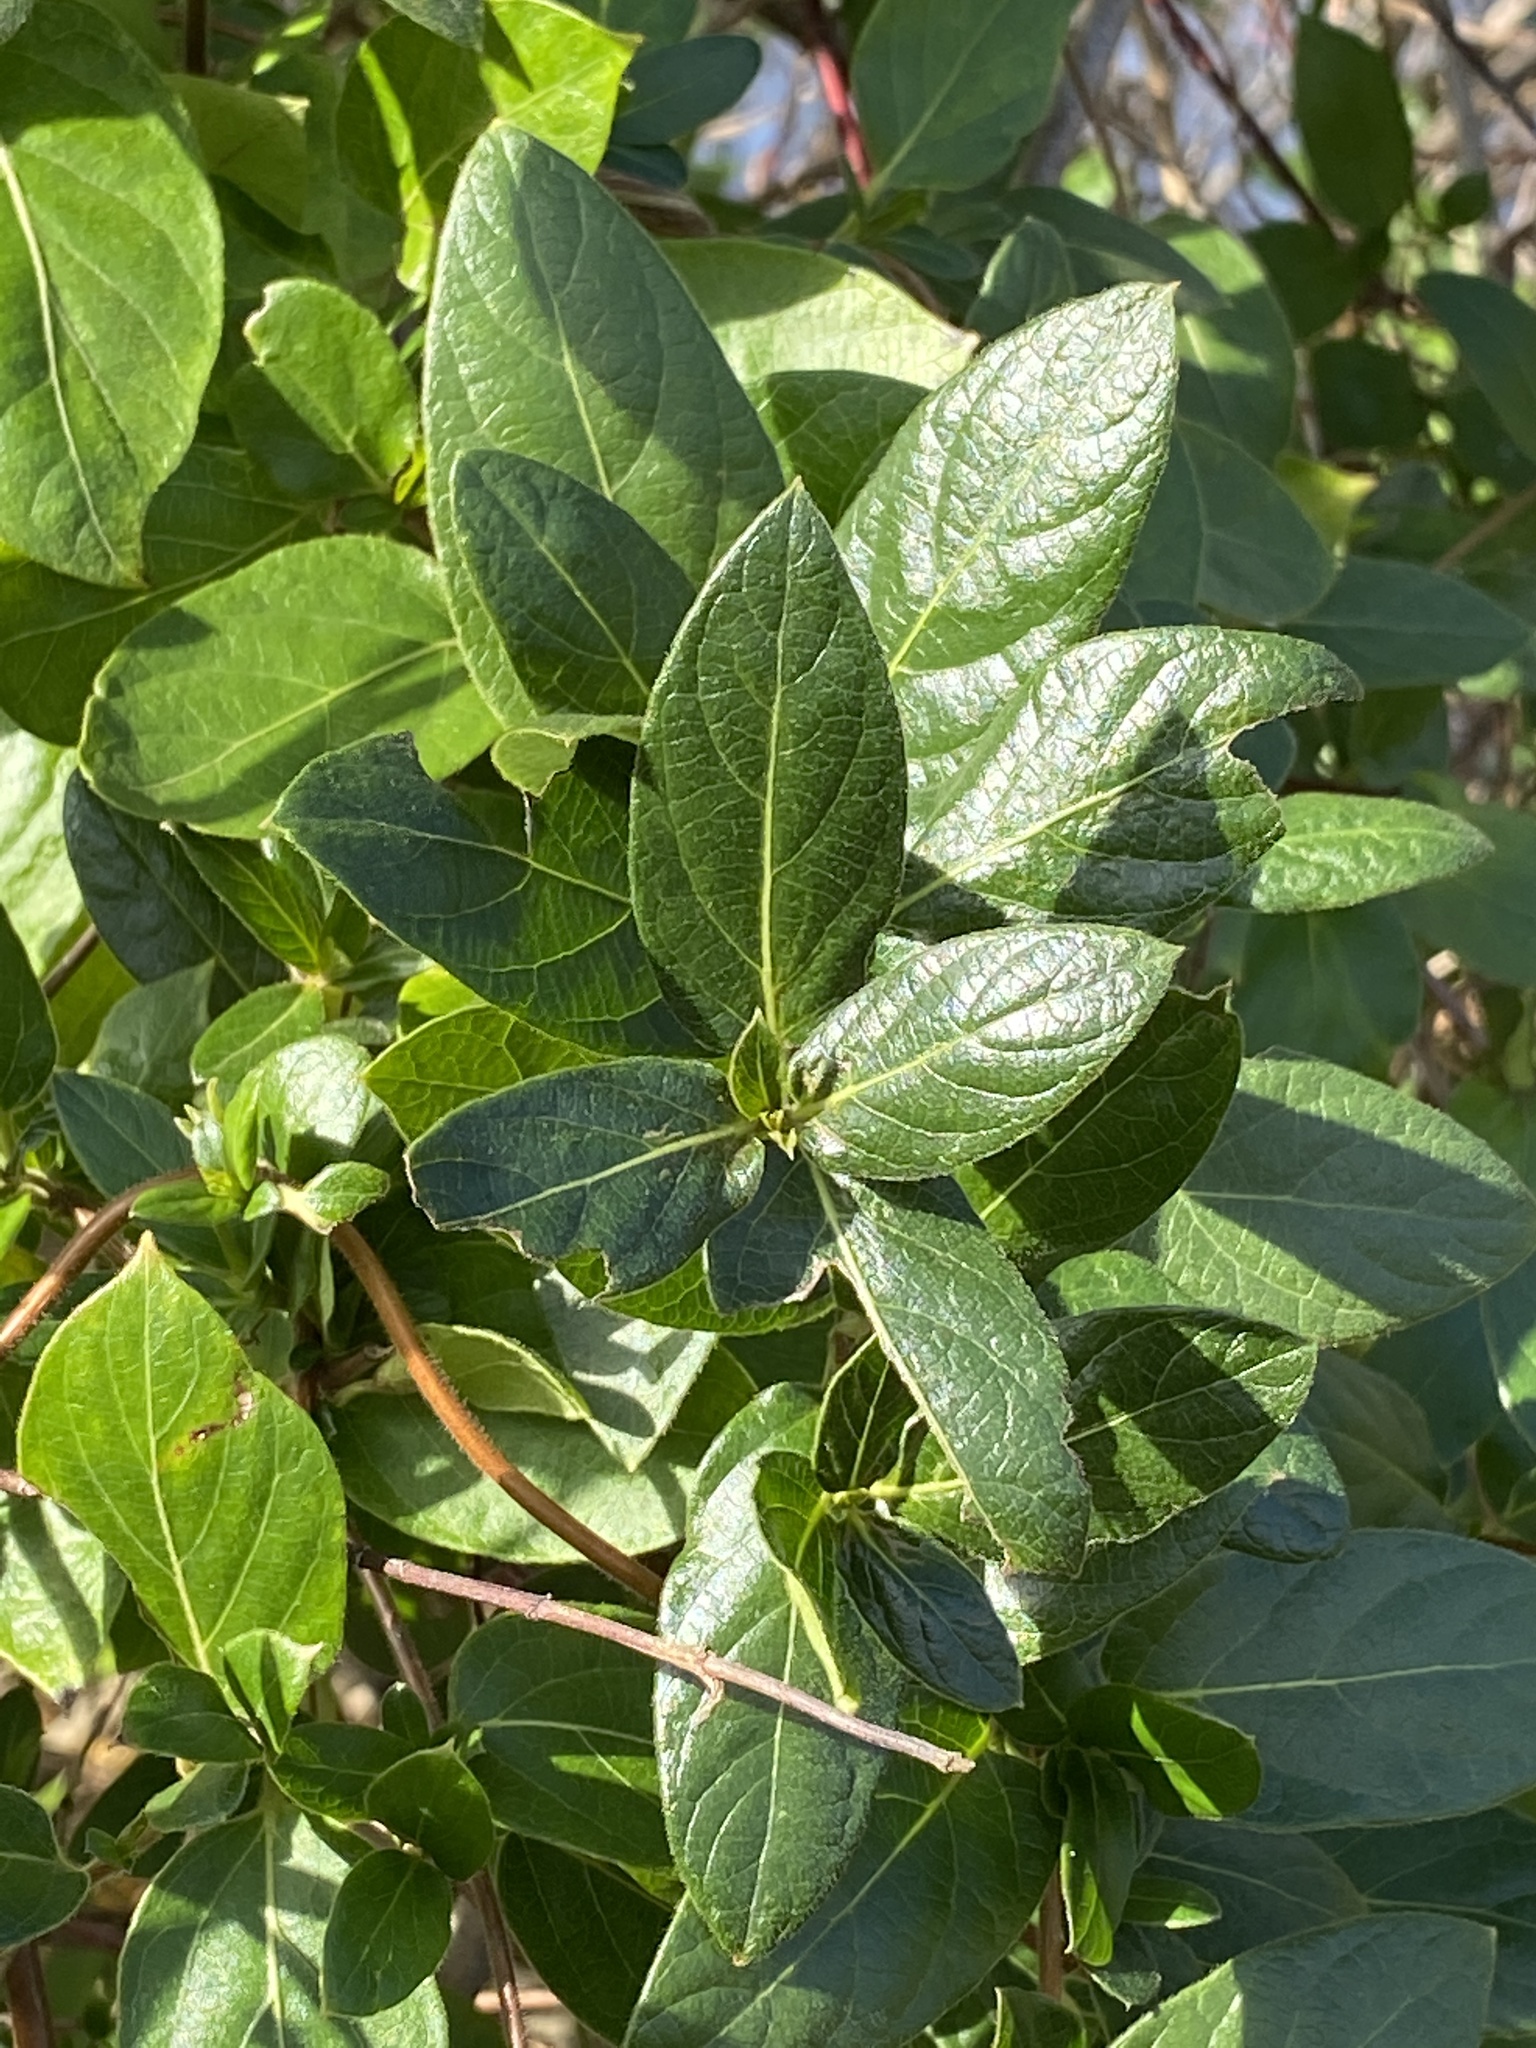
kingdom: Plantae
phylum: Tracheophyta
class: Magnoliopsida
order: Dipsacales
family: Caprifoliaceae
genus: Lonicera
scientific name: Lonicera japonica
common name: Japanese honeysuckle
